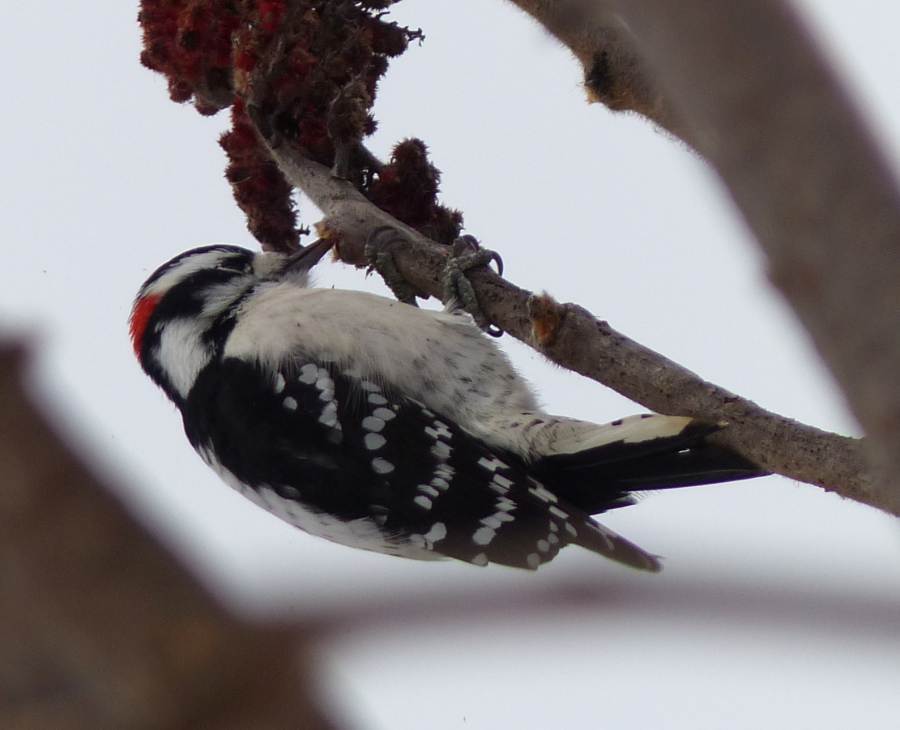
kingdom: Animalia
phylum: Chordata
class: Aves
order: Piciformes
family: Picidae
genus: Dryobates
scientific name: Dryobates pubescens
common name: Downy woodpecker
